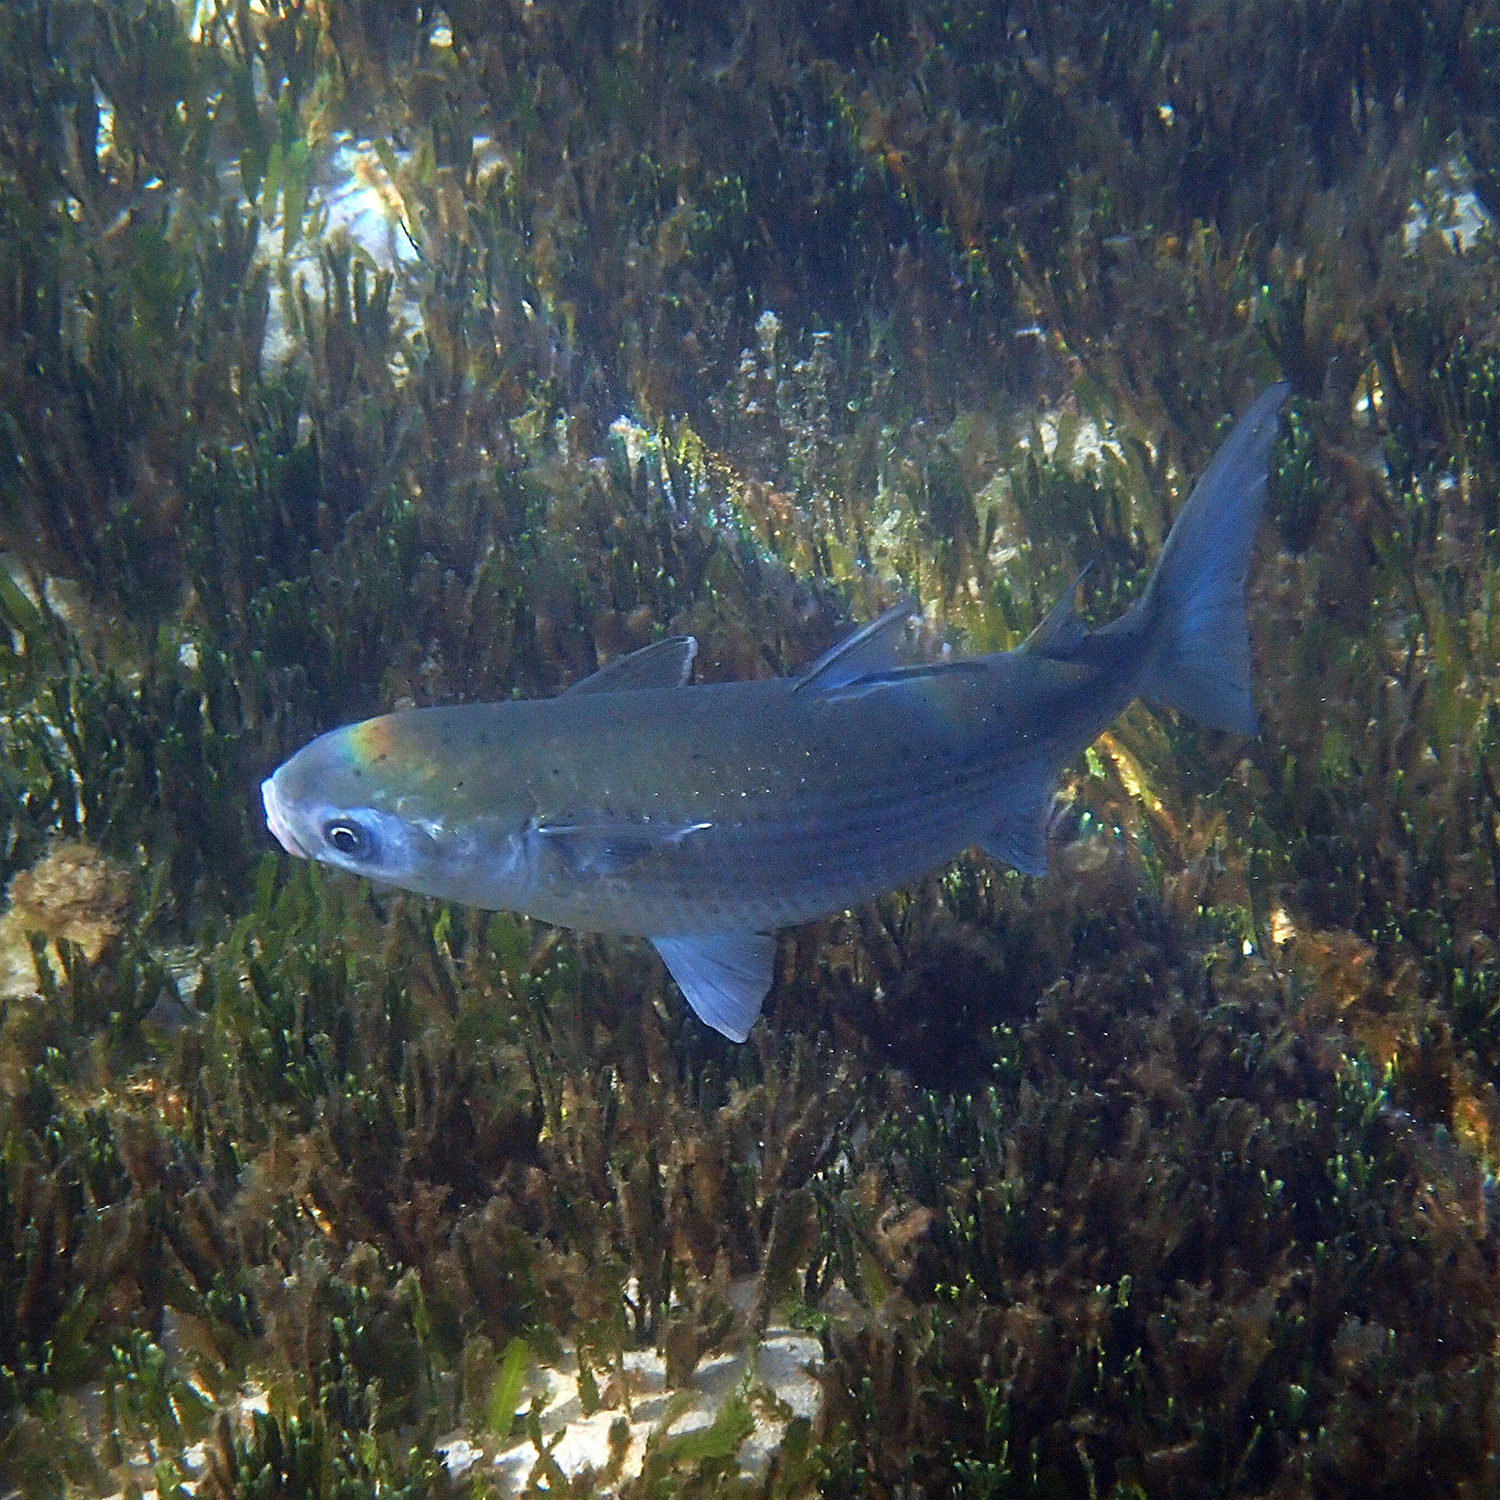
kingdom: Animalia
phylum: Chordata
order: Mugiliformes
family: Mugilidae
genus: Mugil
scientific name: Mugil cephalus
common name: Grey mullet
